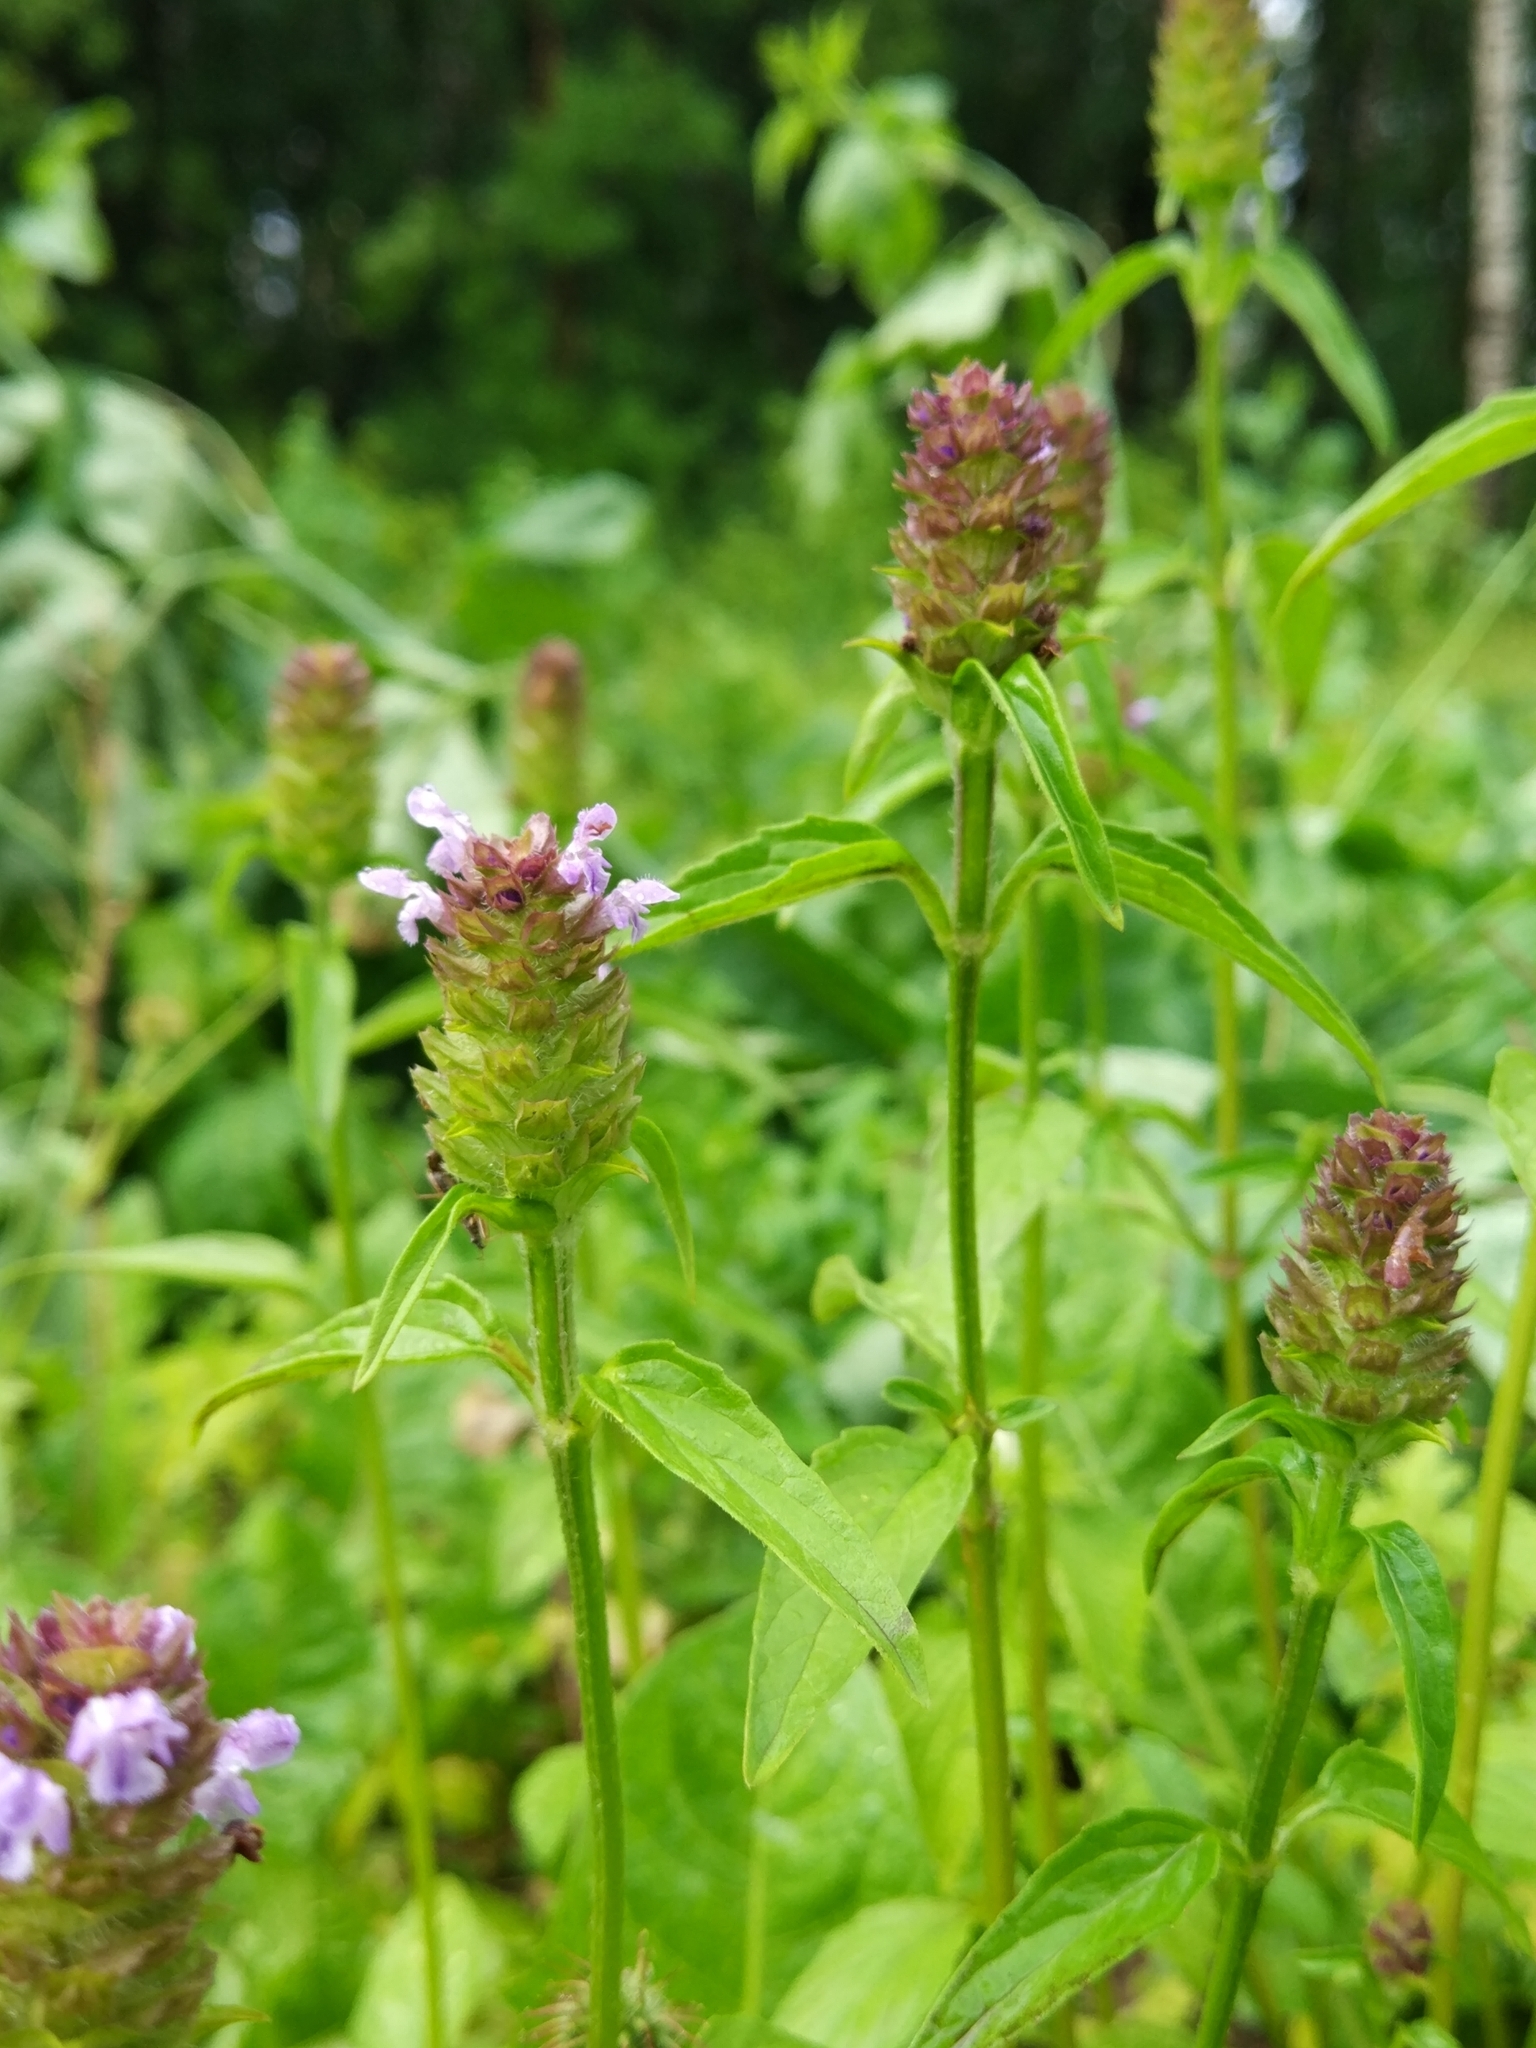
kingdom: Plantae
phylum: Tracheophyta
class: Magnoliopsida
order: Lamiales
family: Lamiaceae
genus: Prunella
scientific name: Prunella vulgaris
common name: Heal-all
